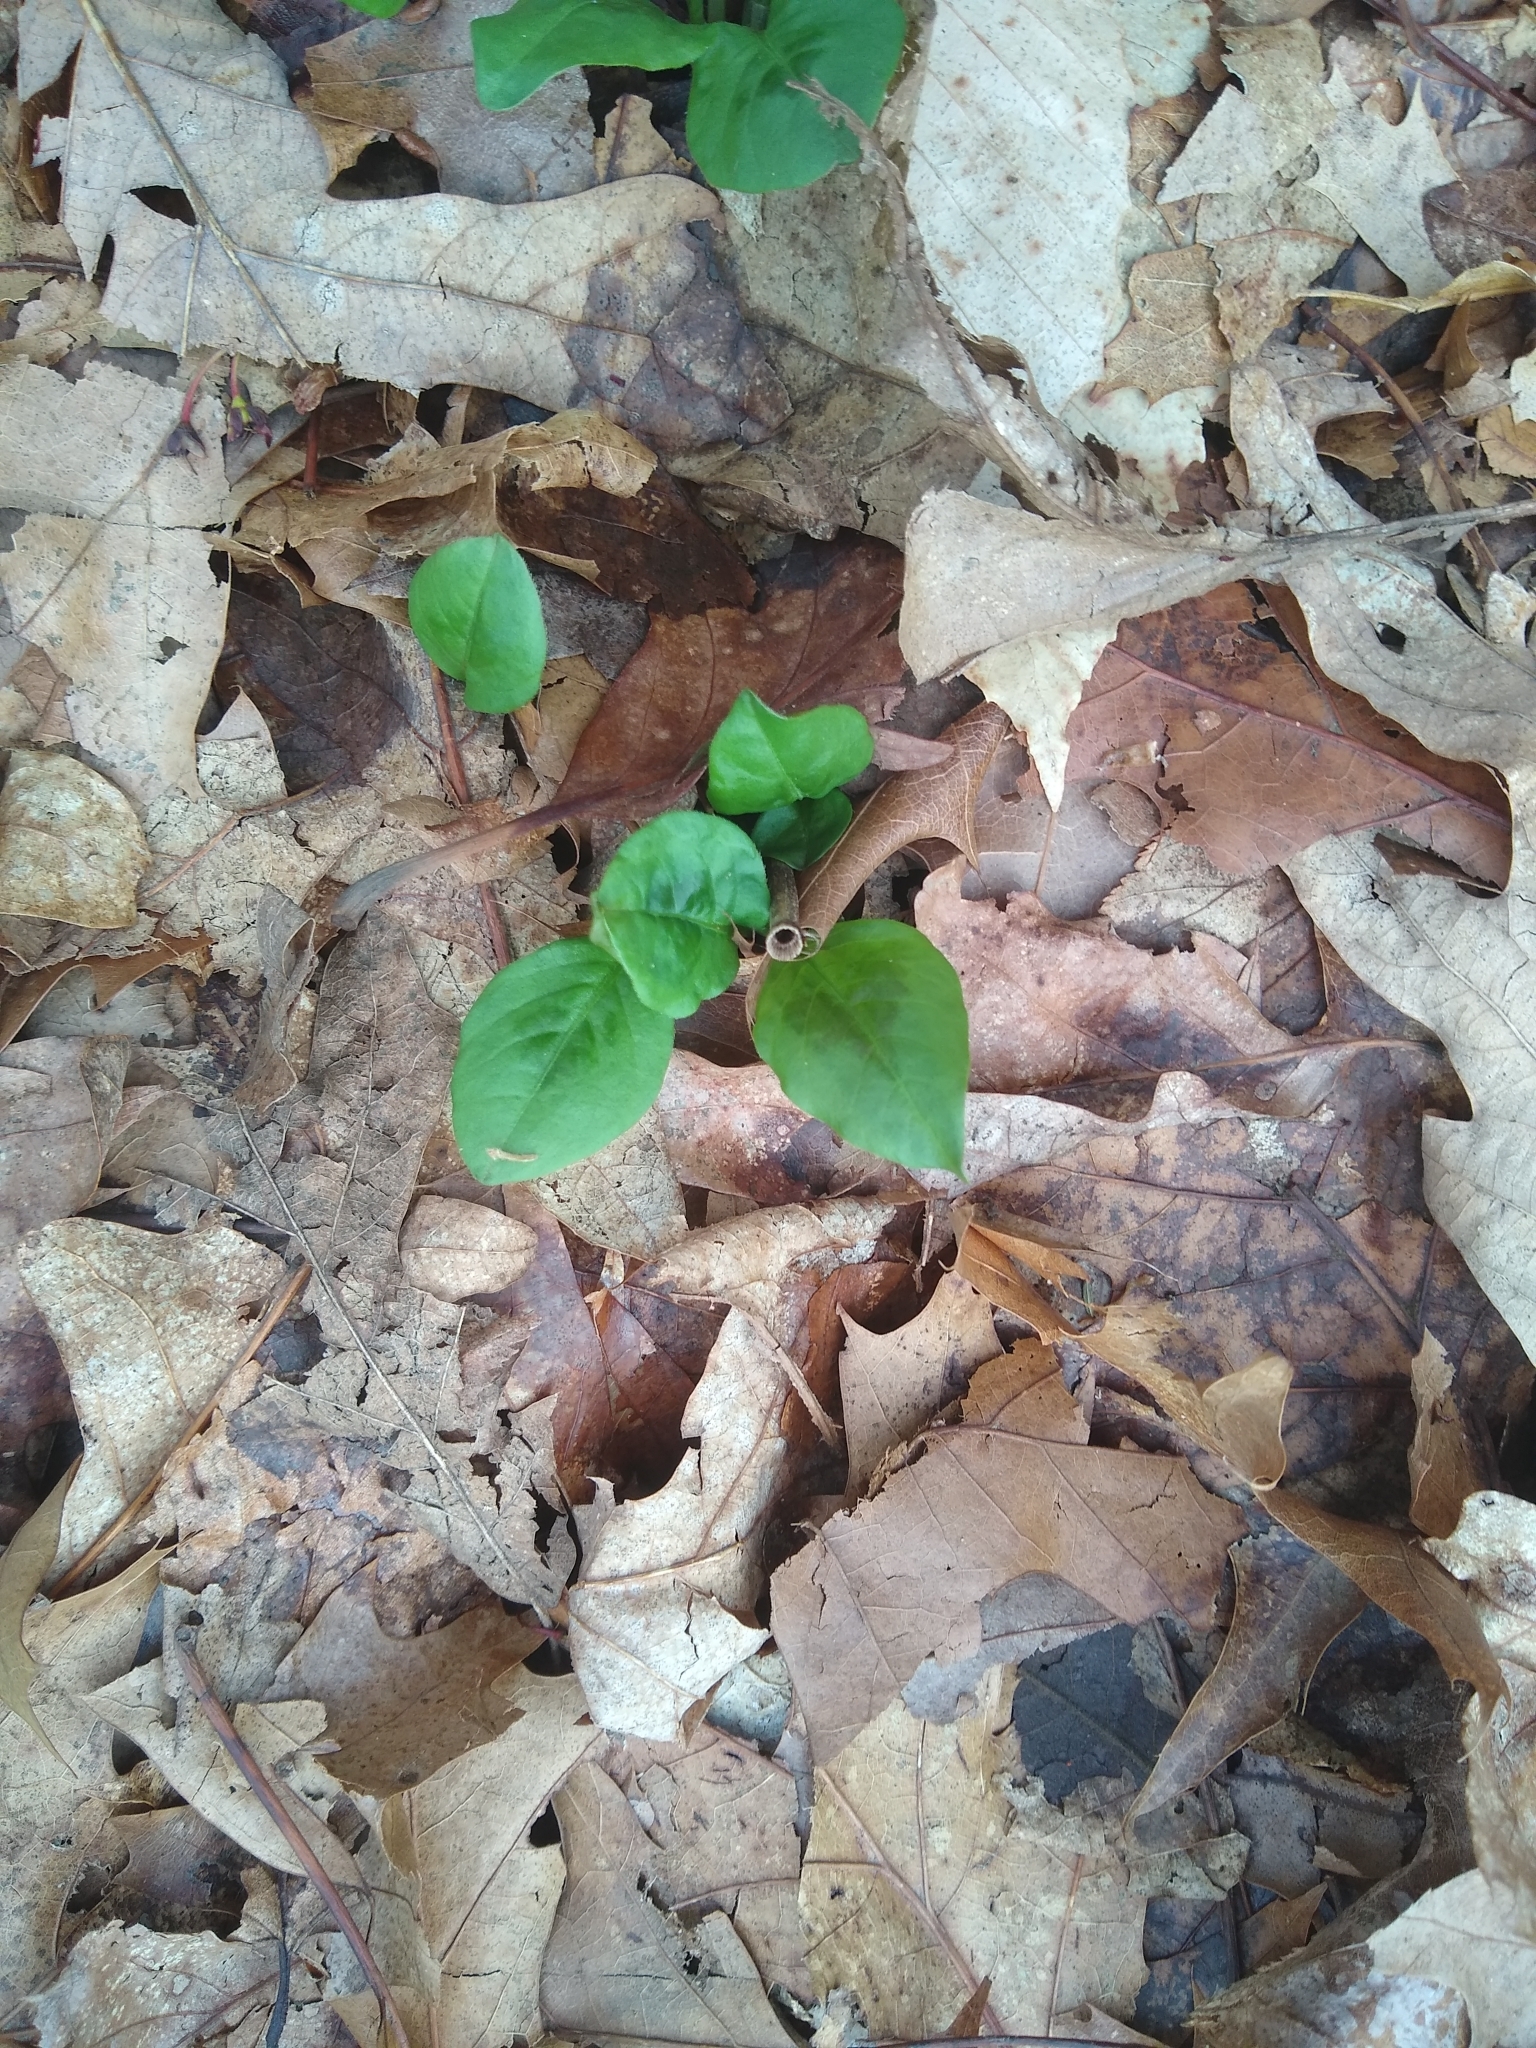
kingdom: Plantae
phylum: Tracheophyta
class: Magnoliopsida
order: Caryophyllales
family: Polygonaceae
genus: Persicaria
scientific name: Persicaria virginiana
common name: Jumpseed
